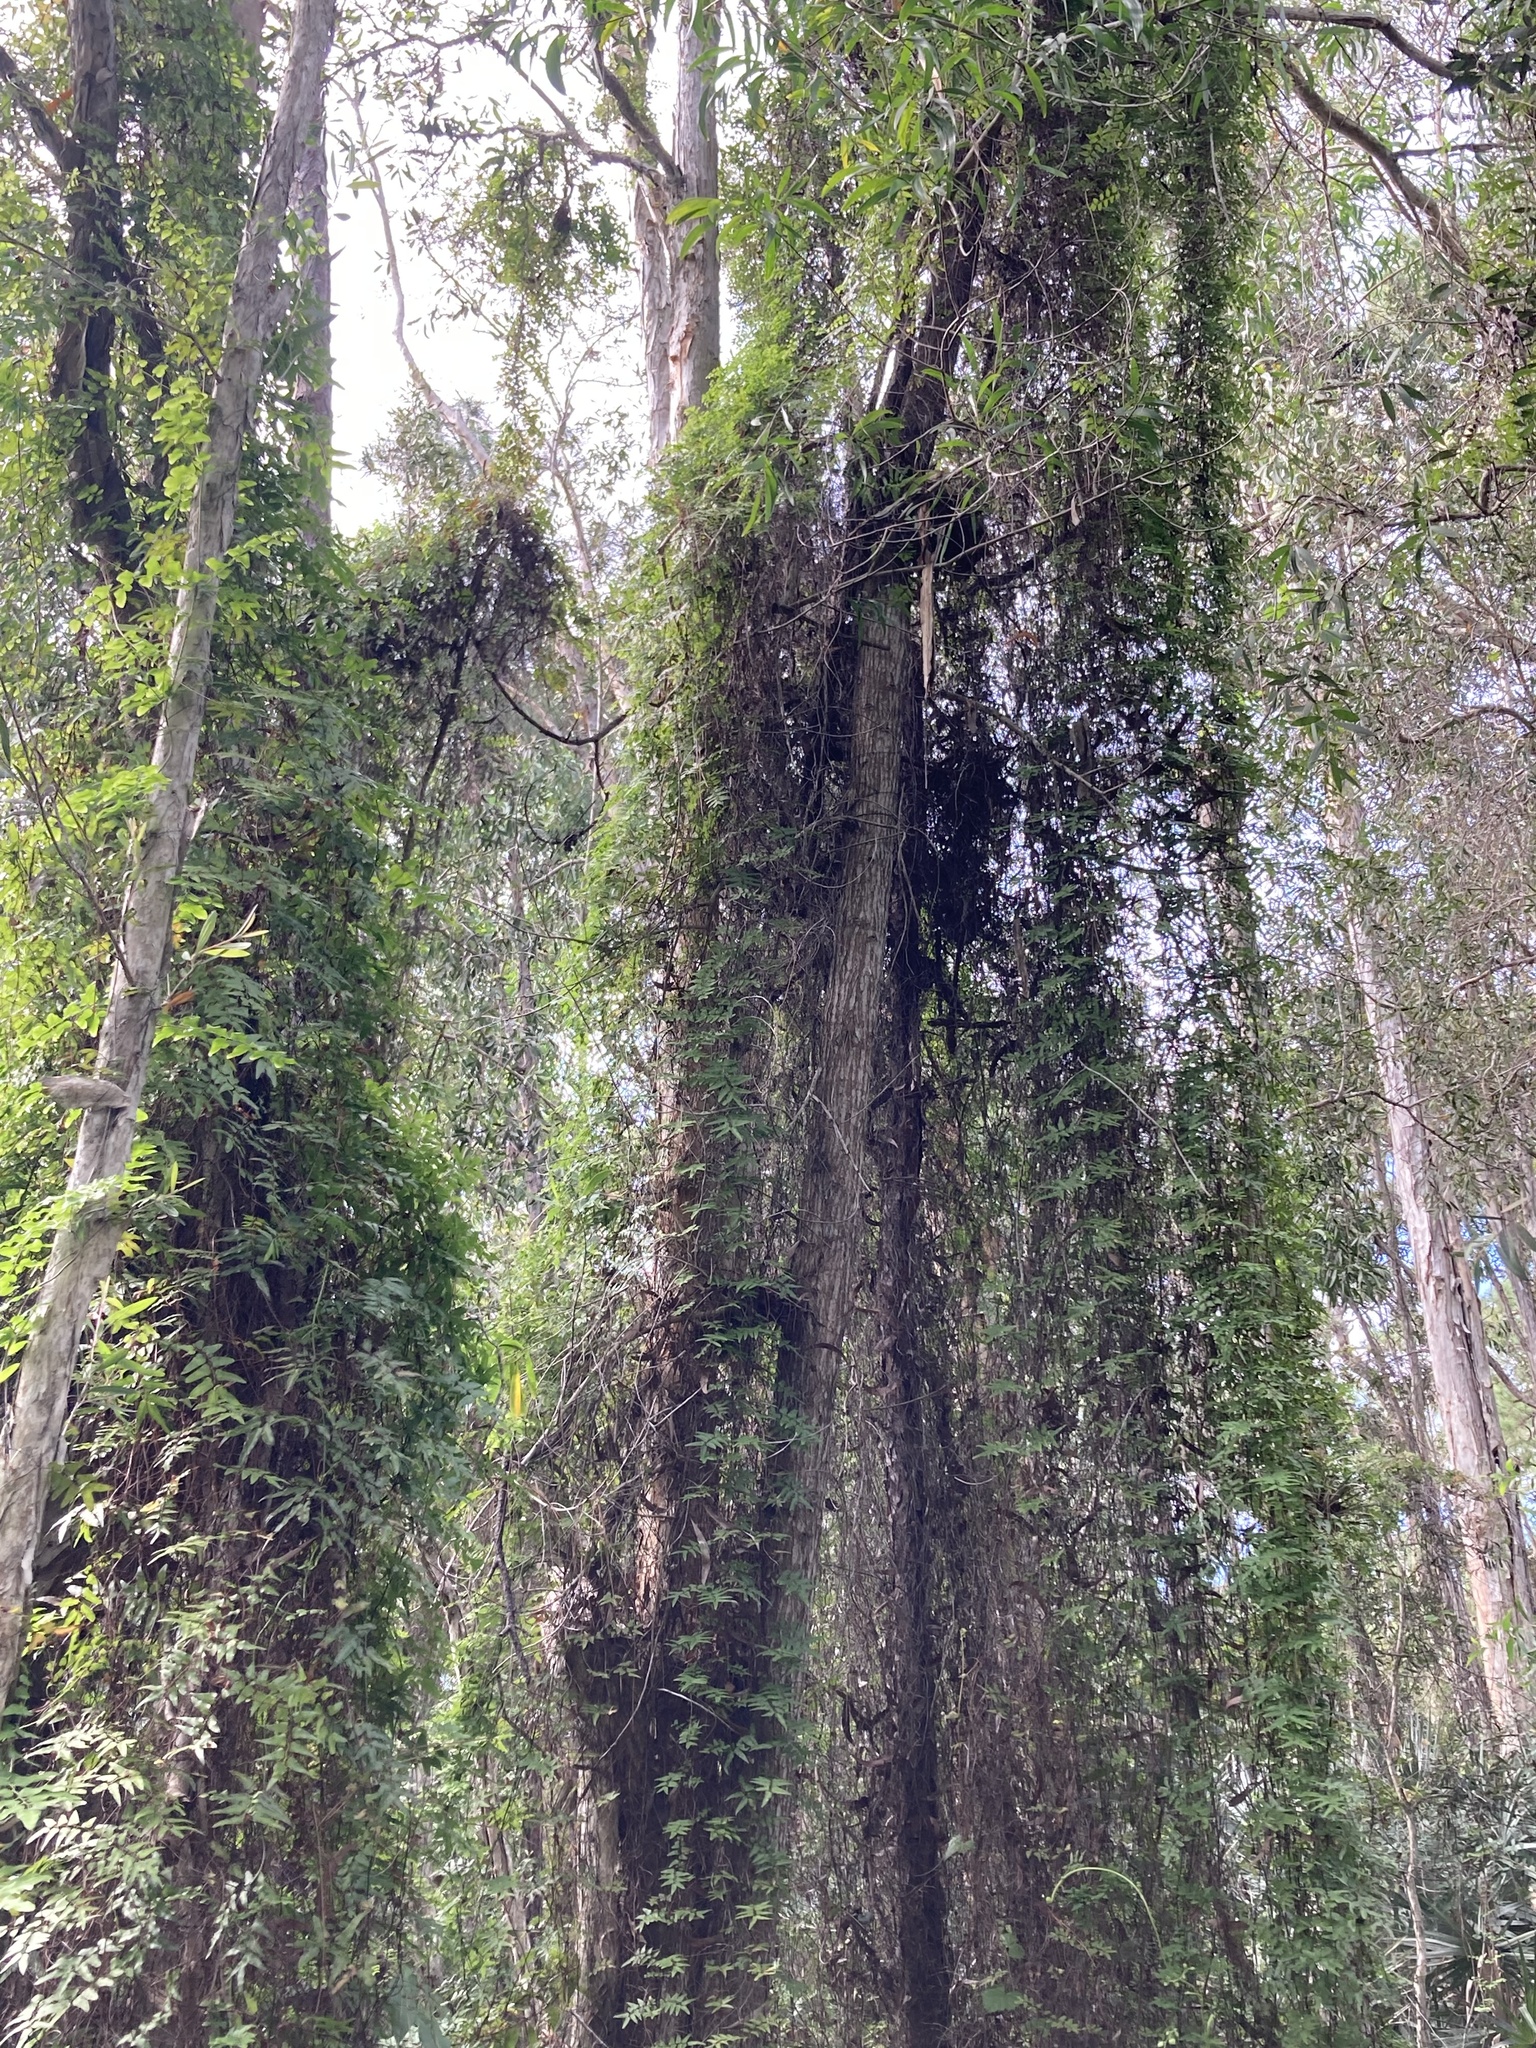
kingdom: Plantae
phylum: Tracheophyta
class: Polypodiopsida
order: Schizaeales
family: Lygodiaceae
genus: Lygodium
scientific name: Lygodium microphyllum
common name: Small-leaf climbing fern
